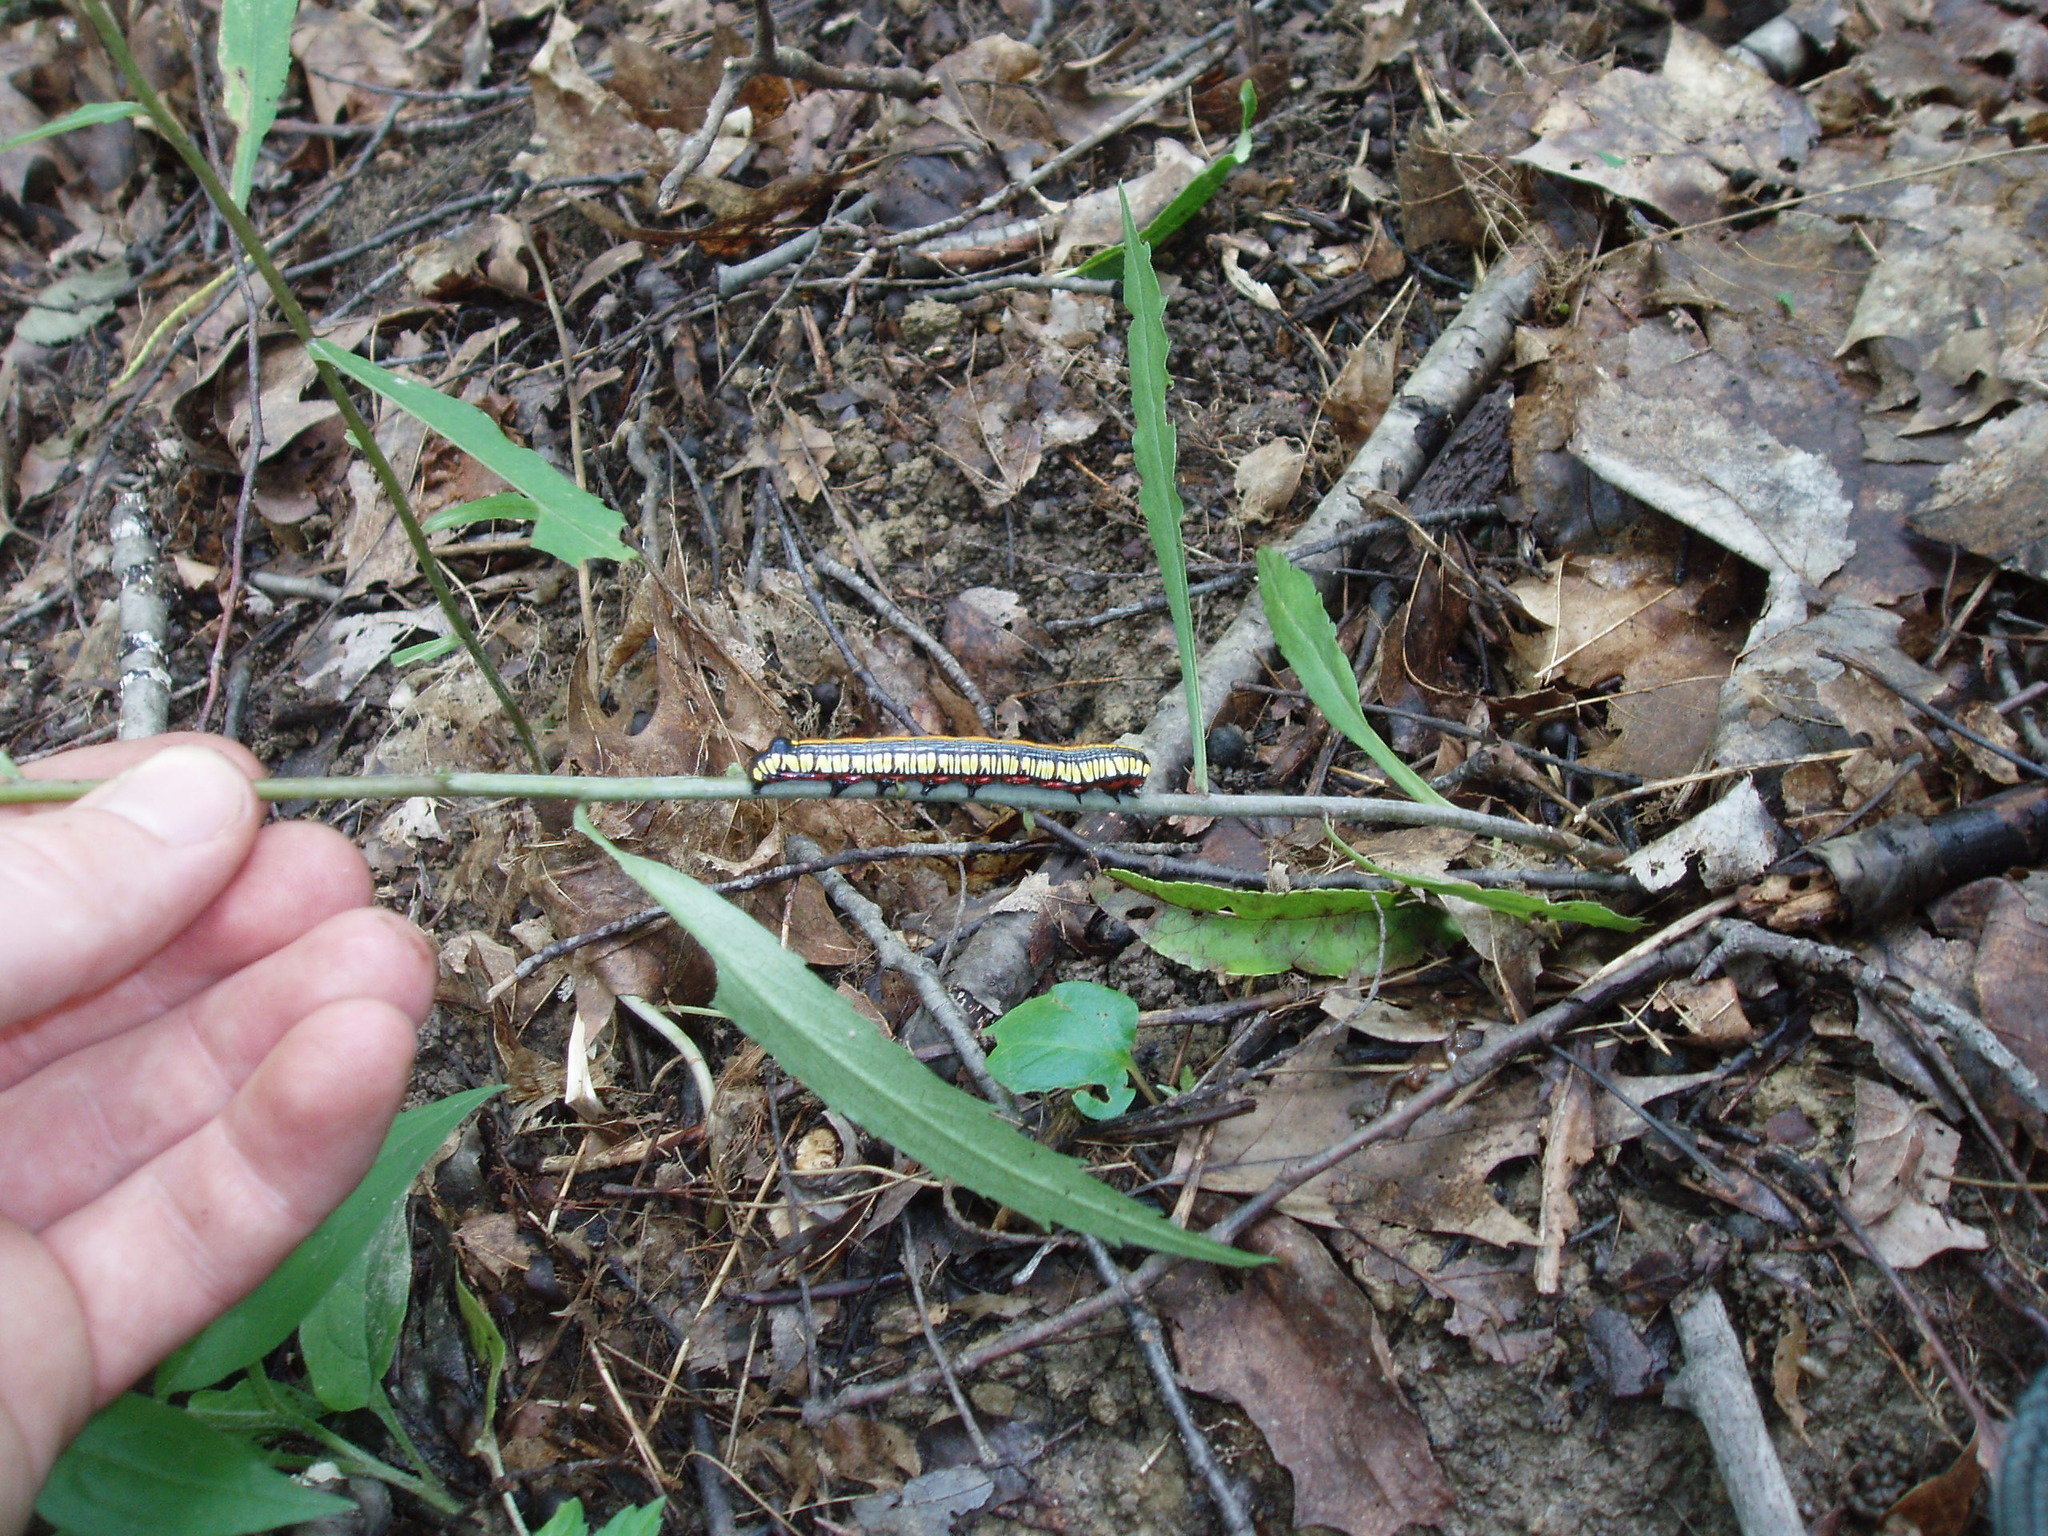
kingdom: Animalia
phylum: Arthropoda
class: Insecta
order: Lepidoptera
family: Noctuidae
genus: Cucullia
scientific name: Cucullia convexipennis
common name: Brown-hooded owlet
